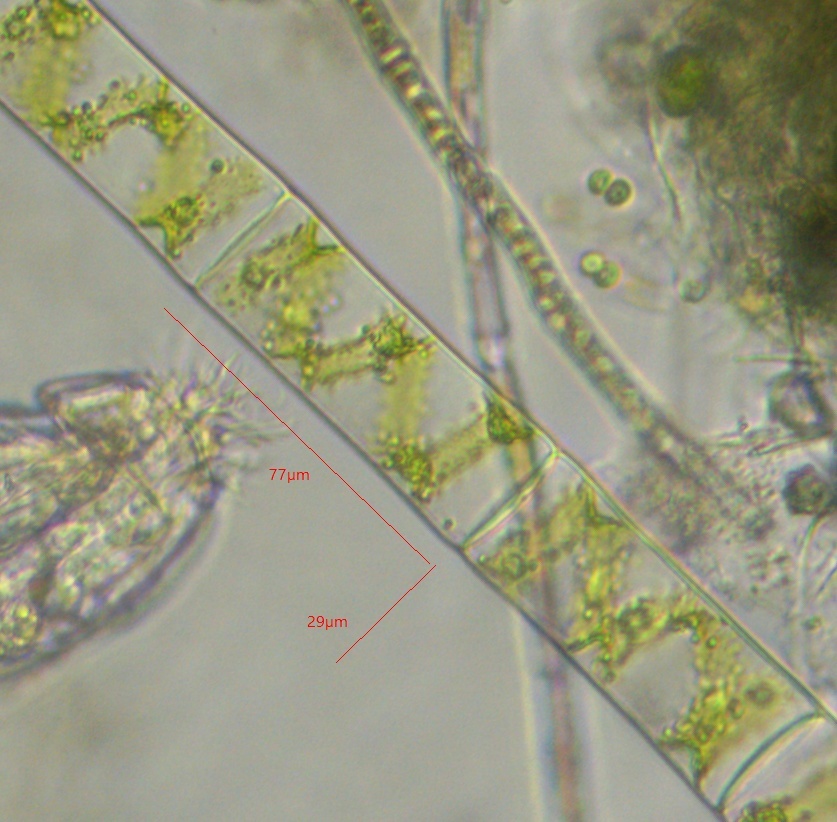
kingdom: Plantae
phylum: Charophyta
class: Zygnematophyceae
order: Zygnematales
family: Zygnemataceae
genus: Spirogyra
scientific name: Spirogyra
